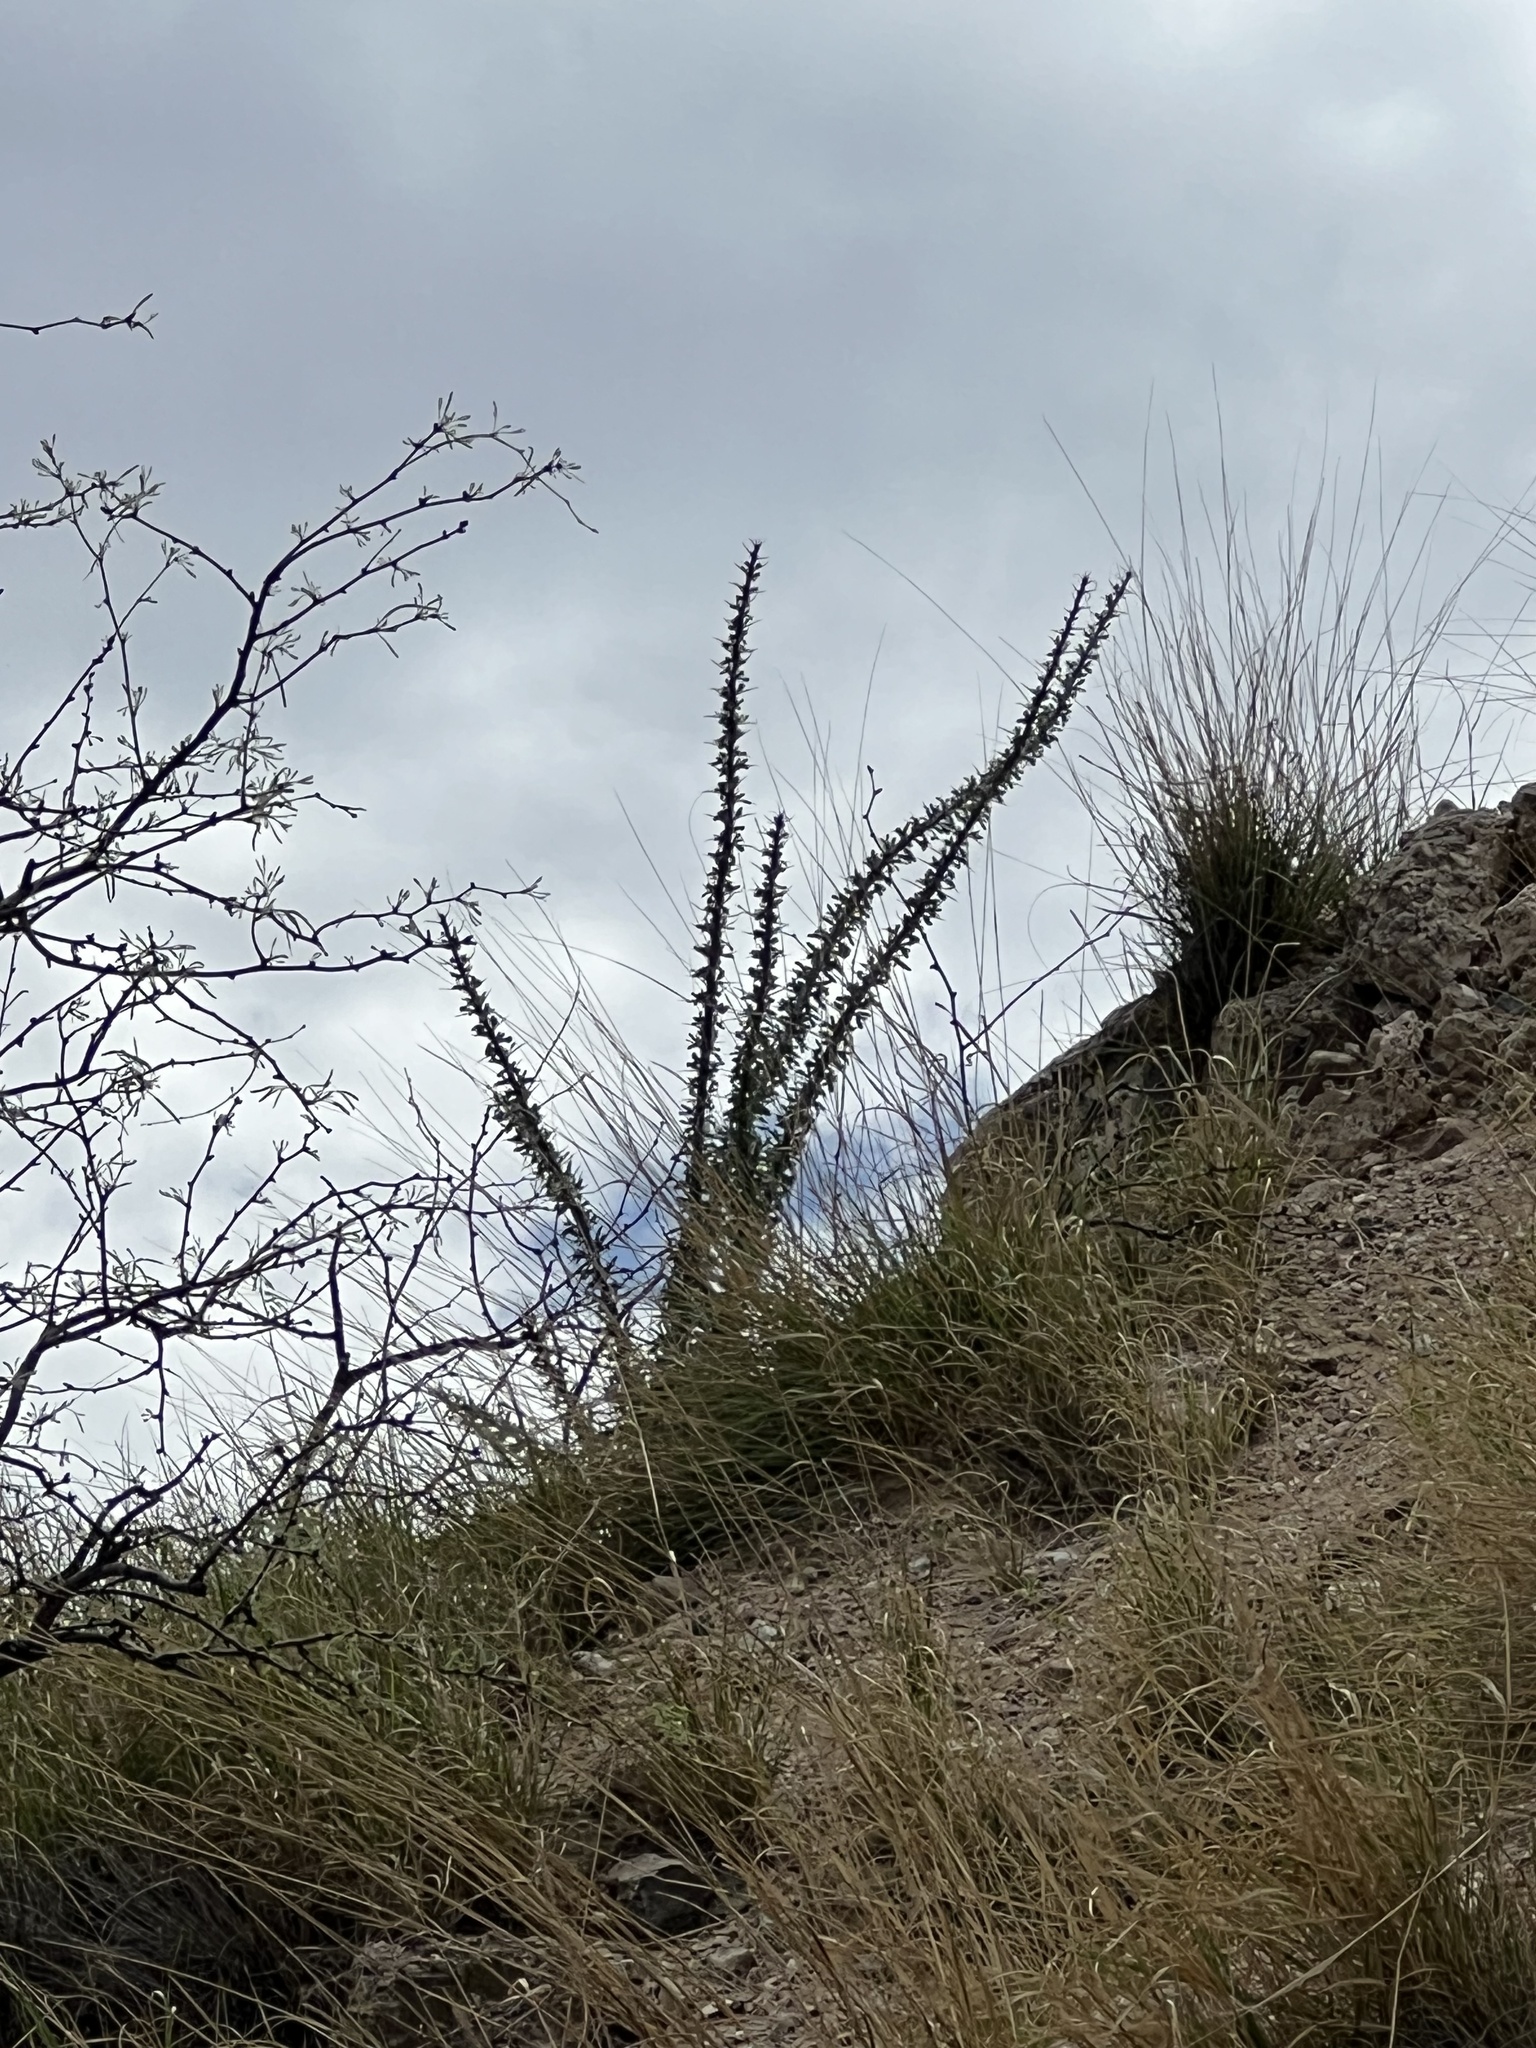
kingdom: Plantae
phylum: Tracheophyta
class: Magnoliopsida
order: Ericales
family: Fouquieriaceae
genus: Fouquieria
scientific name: Fouquieria splendens
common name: Vine-cactus
